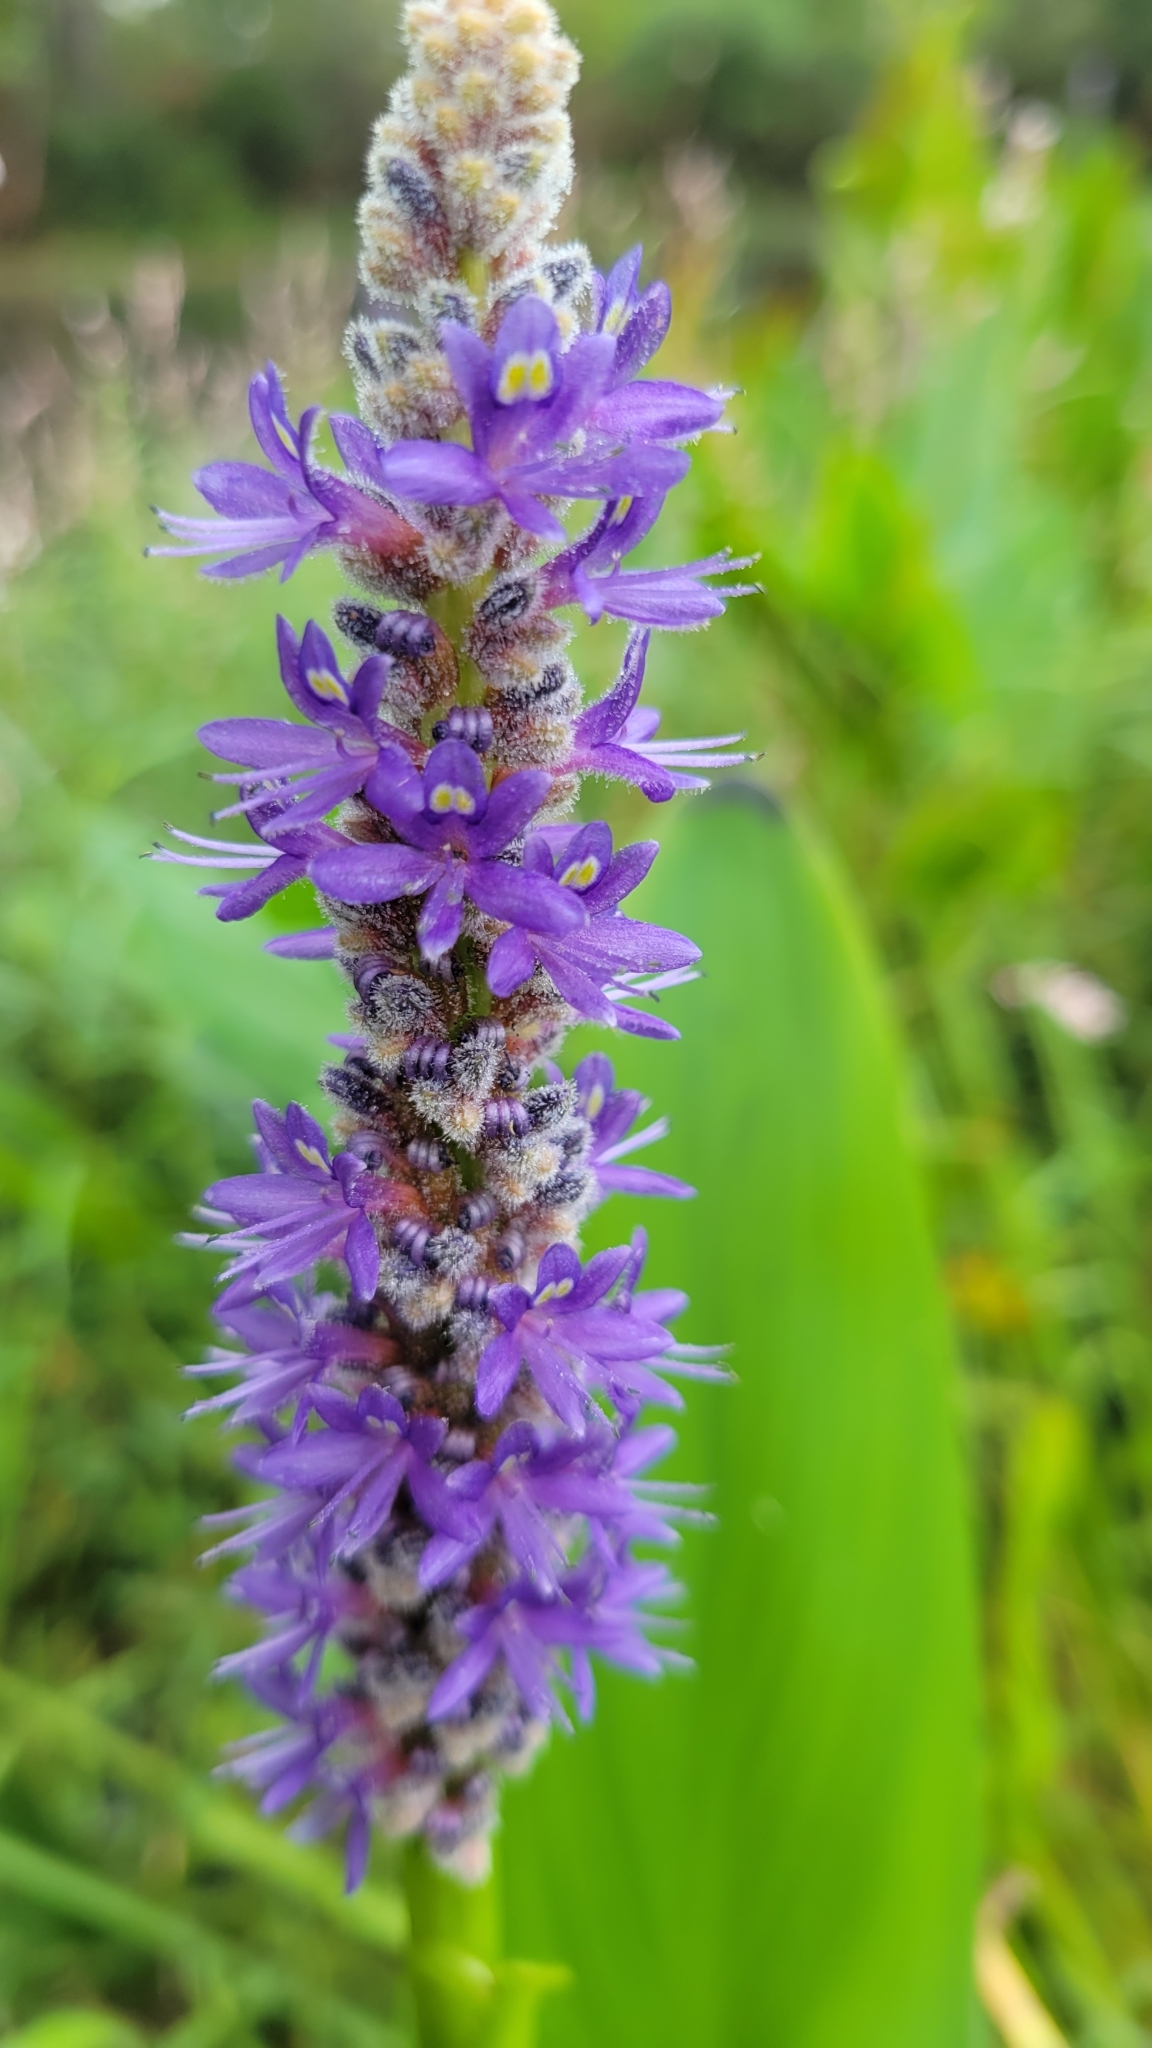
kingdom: Plantae
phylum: Tracheophyta
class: Liliopsida
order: Commelinales
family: Pontederiaceae
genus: Pontederia
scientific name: Pontederia cordata
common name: Pickerelweed
